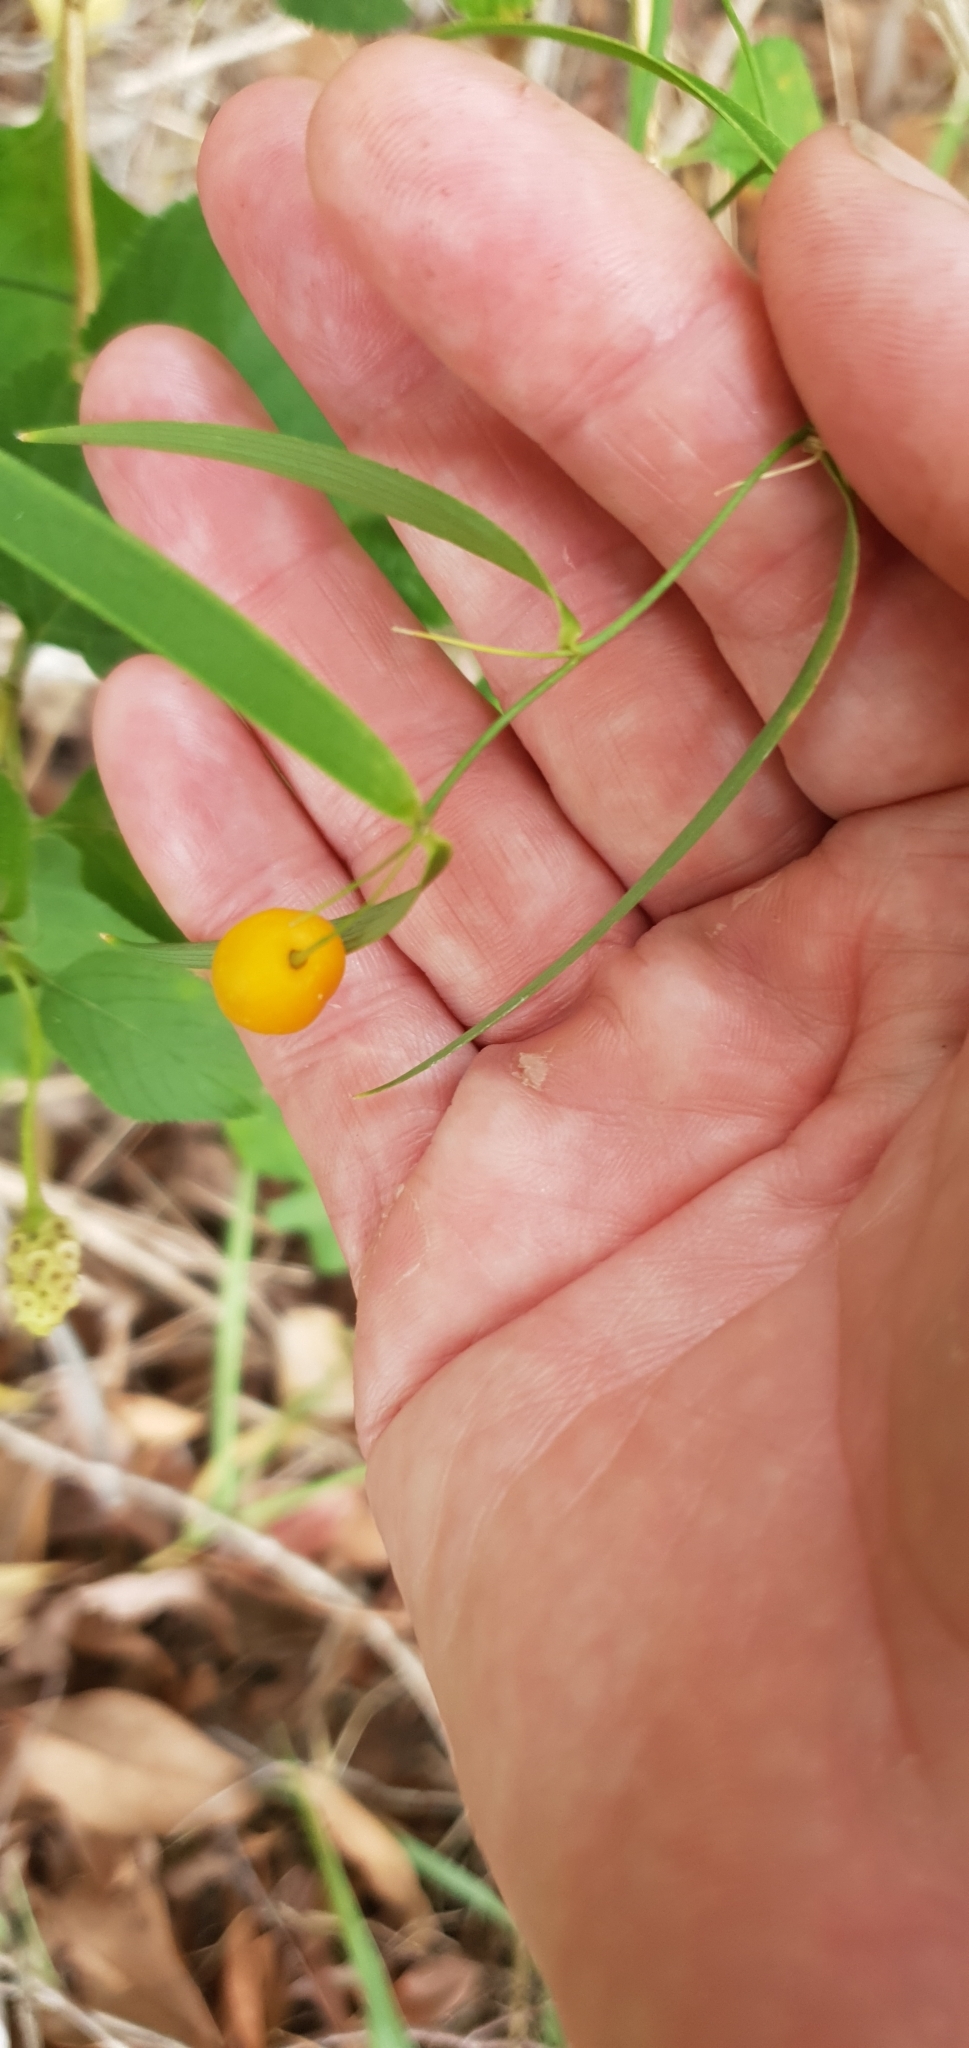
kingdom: Plantae
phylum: Tracheophyta
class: Liliopsida
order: Asparagales
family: Asparagaceae
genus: Eustrephus
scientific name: Eustrephus latifolius
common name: Orangevine
